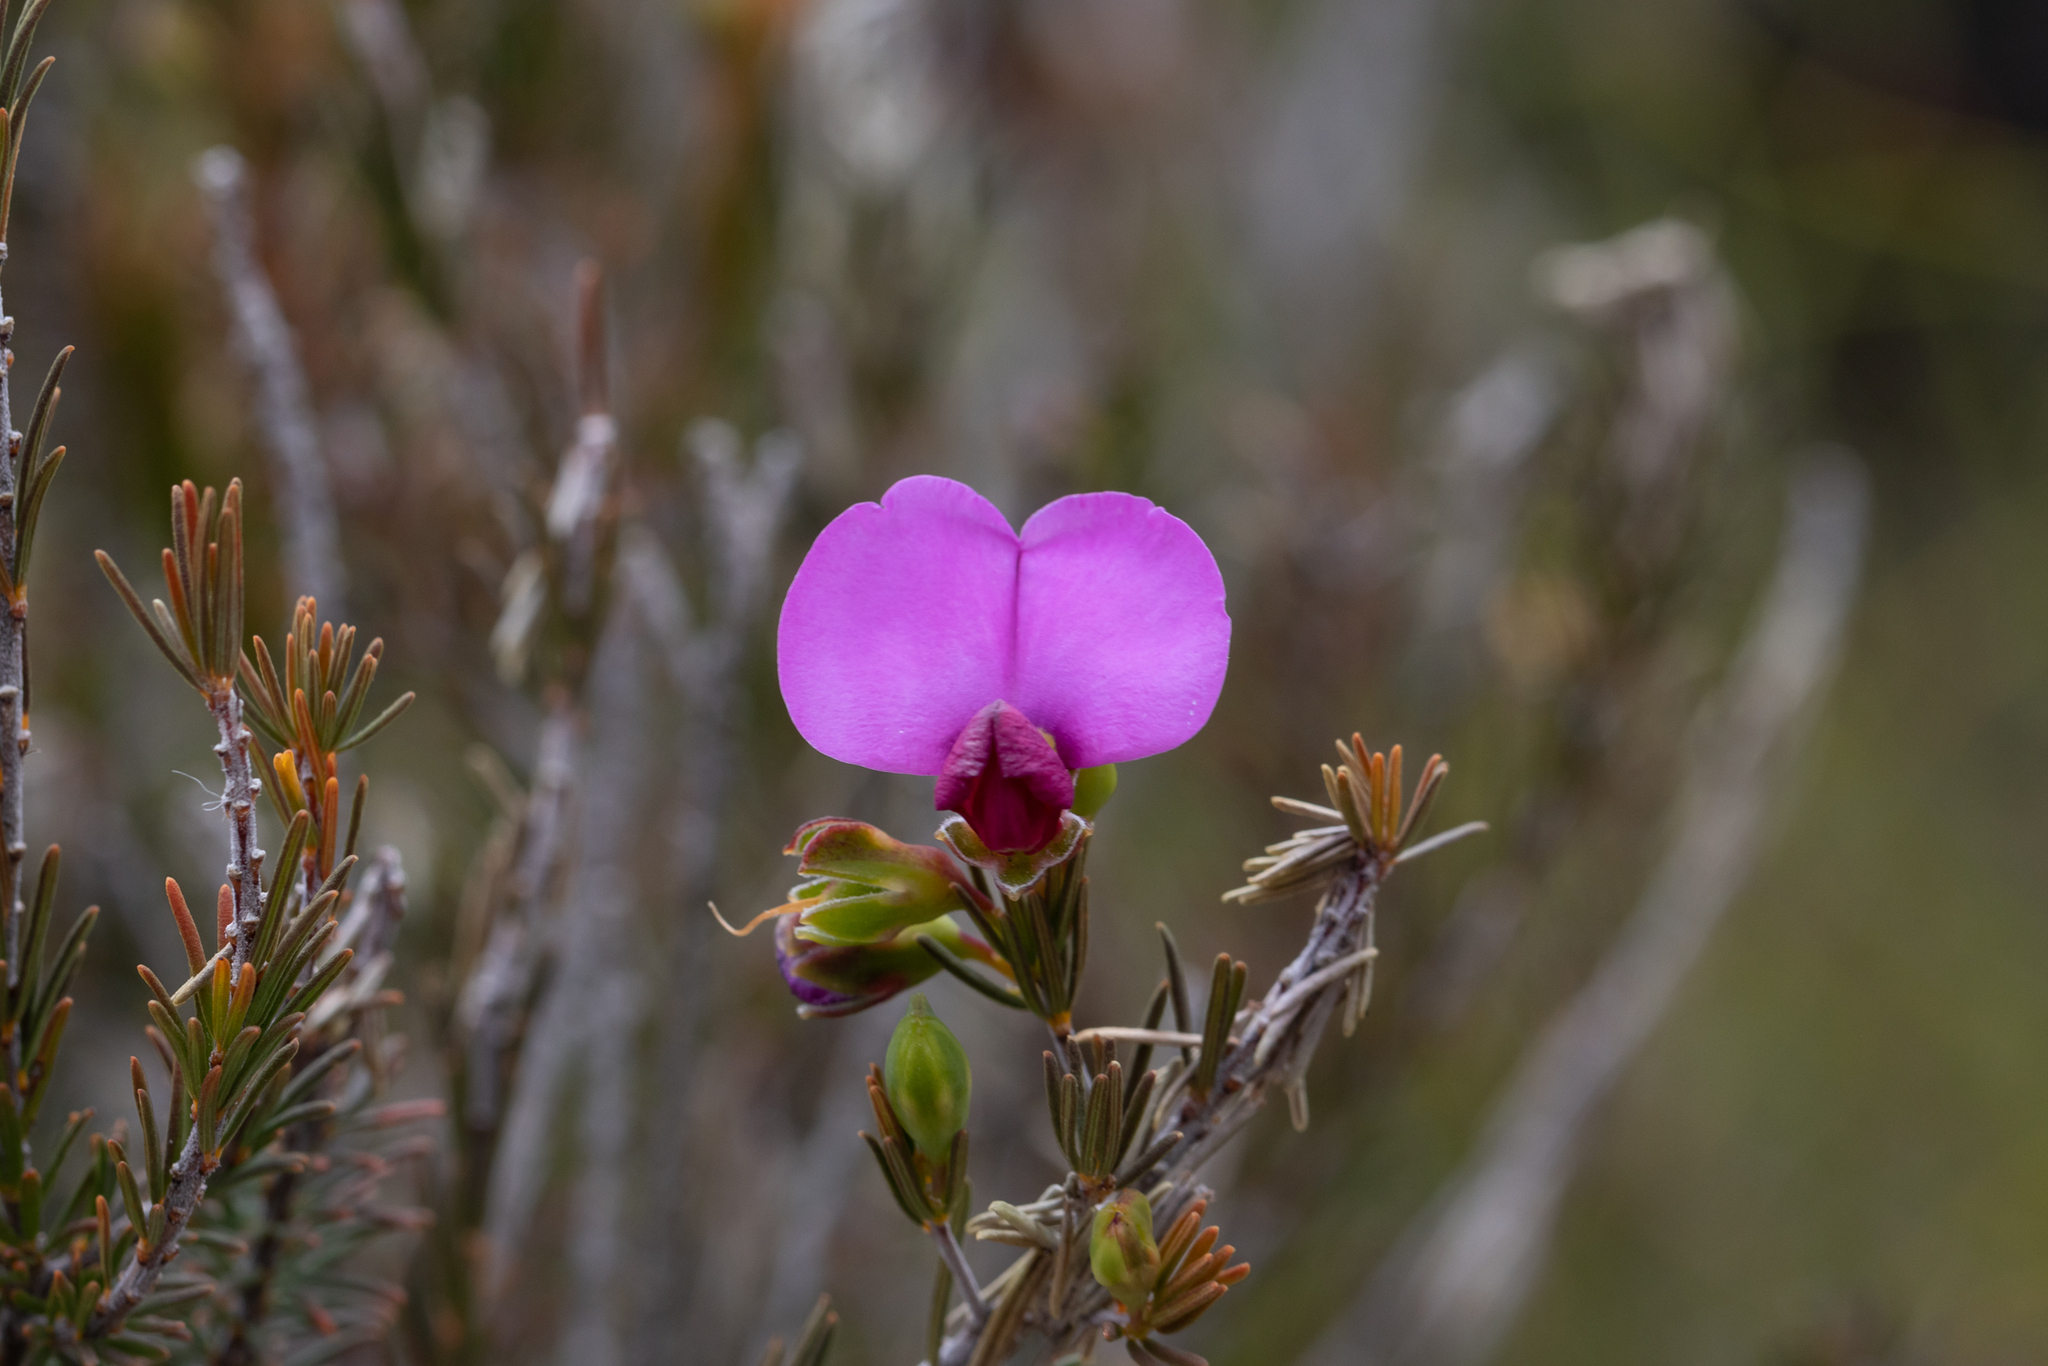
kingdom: Plantae
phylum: Tracheophyta
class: Magnoliopsida
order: Fabales
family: Fabaceae
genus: Gompholobium
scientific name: Gompholobium scabrum
